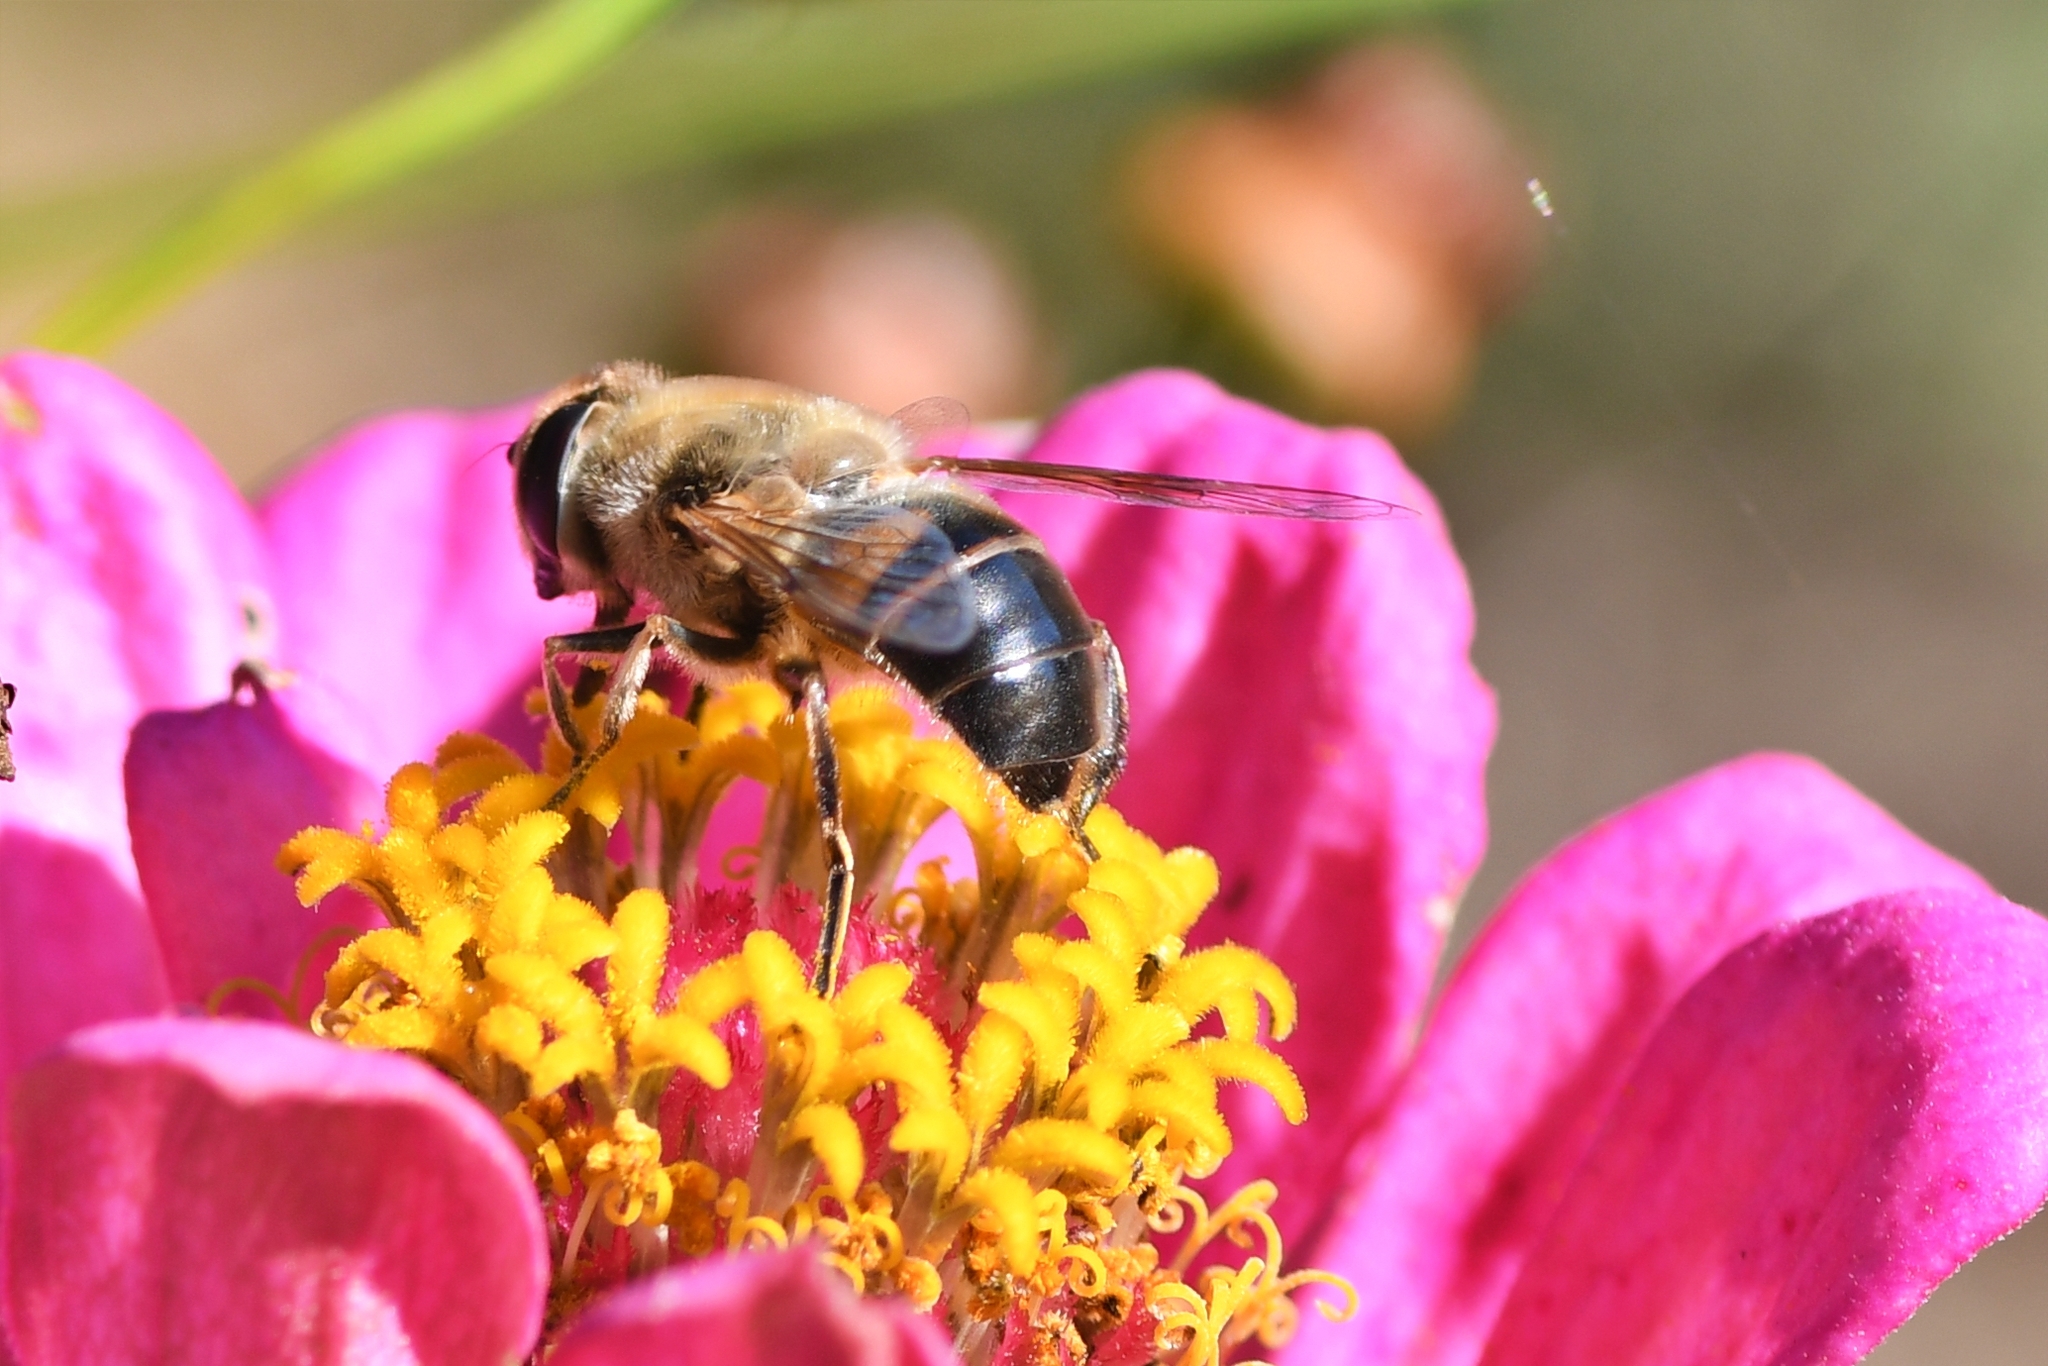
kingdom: Animalia
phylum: Arthropoda
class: Insecta
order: Diptera
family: Syrphidae
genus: Eristalis
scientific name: Eristalis tenax
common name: Drone fly
